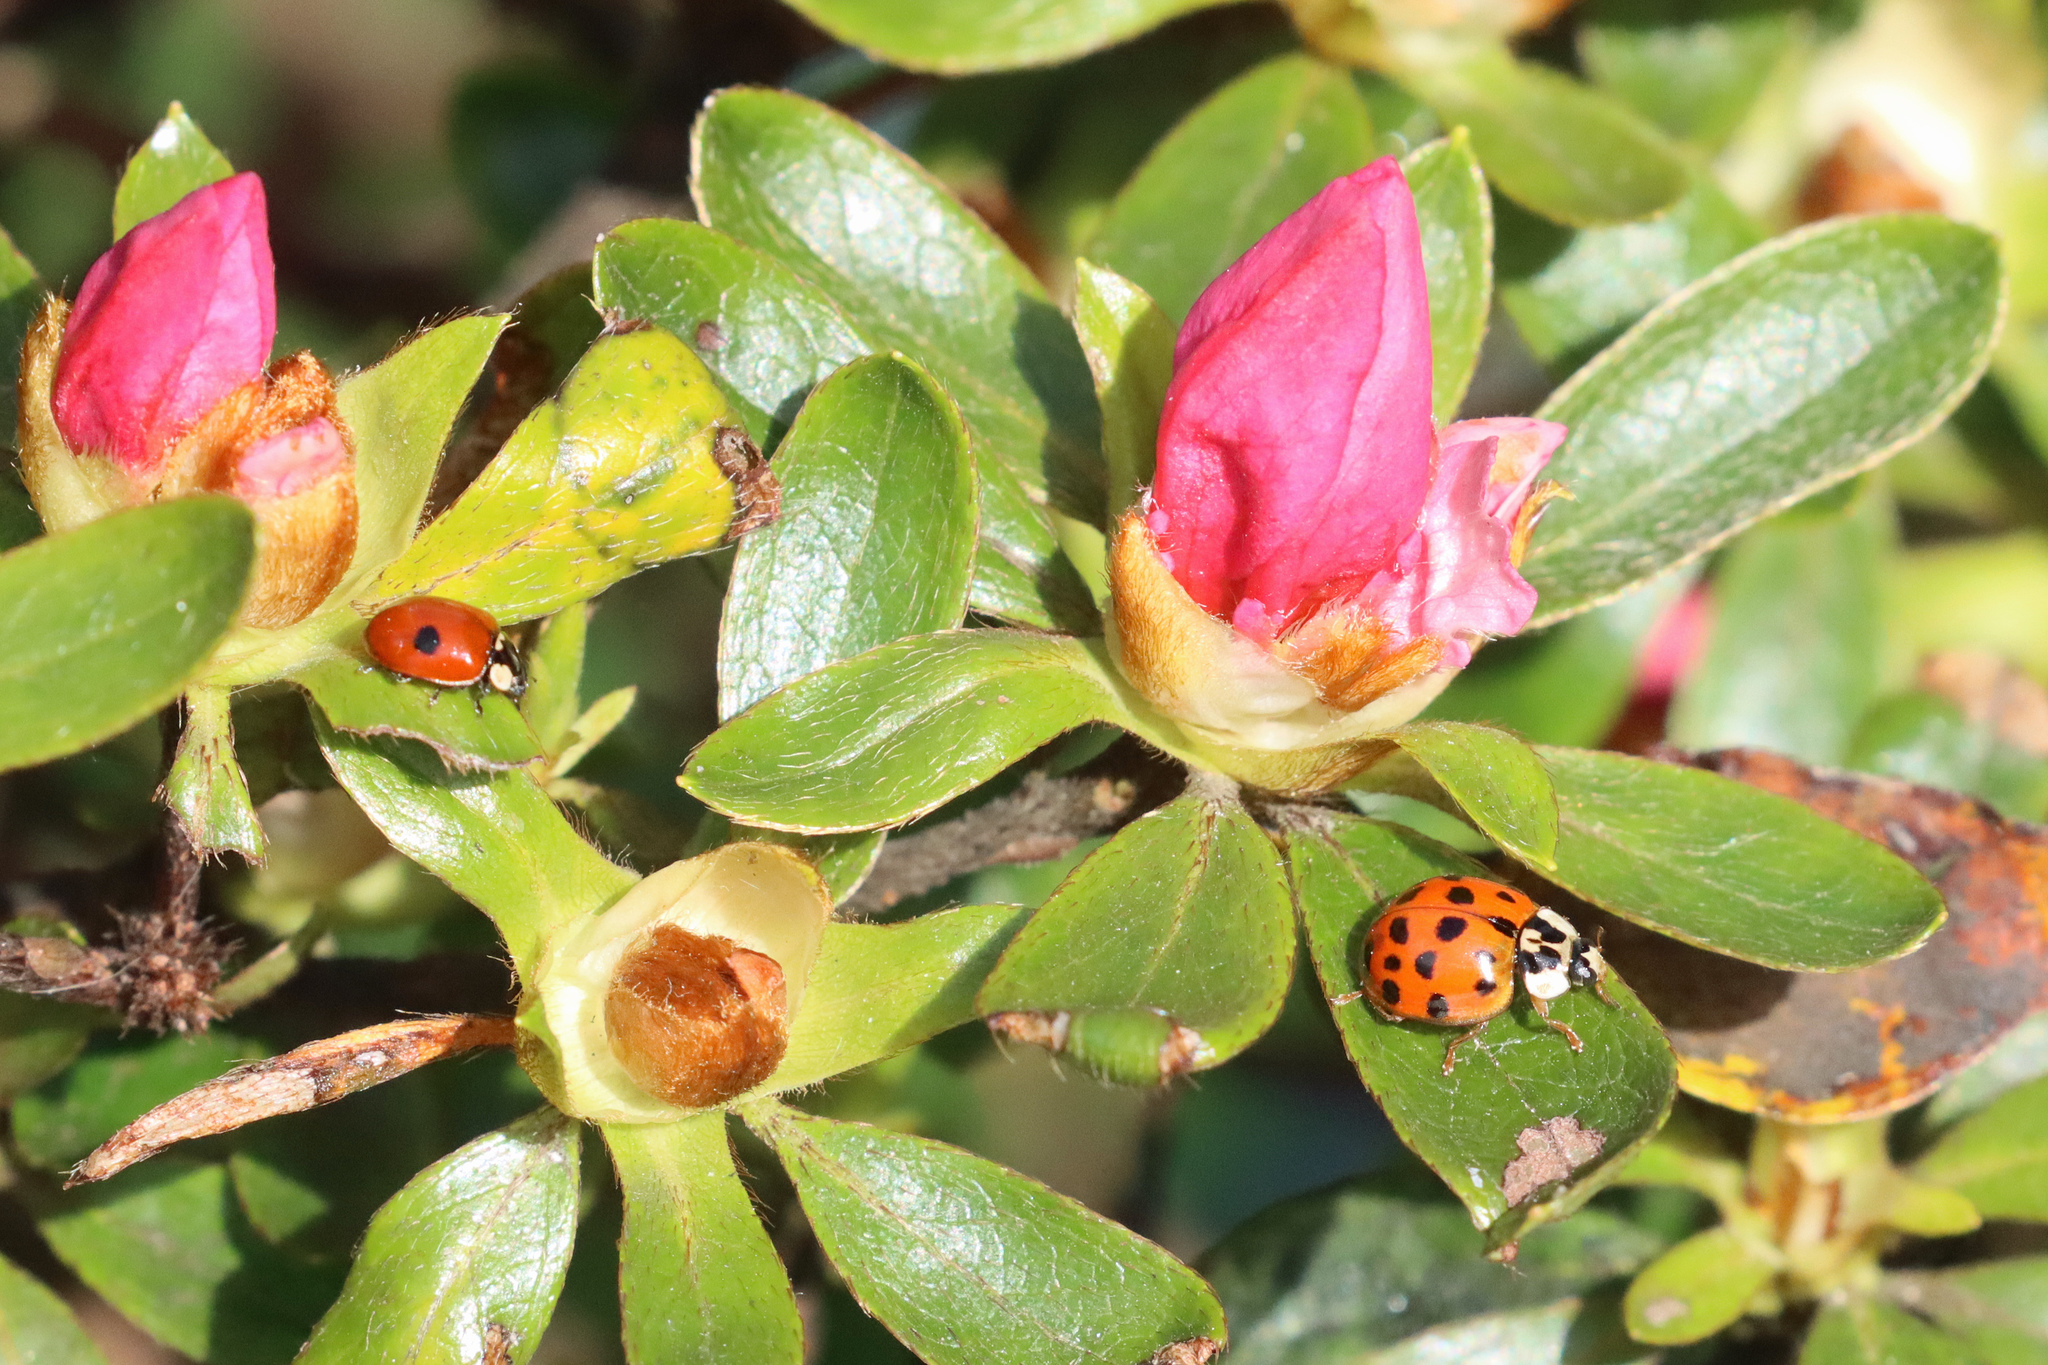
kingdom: Animalia
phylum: Arthropoda
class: Insecta
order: Coleoptera
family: Coccinellidae
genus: Adalia
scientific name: Adalia bipunctata
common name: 2-spot ladybird
